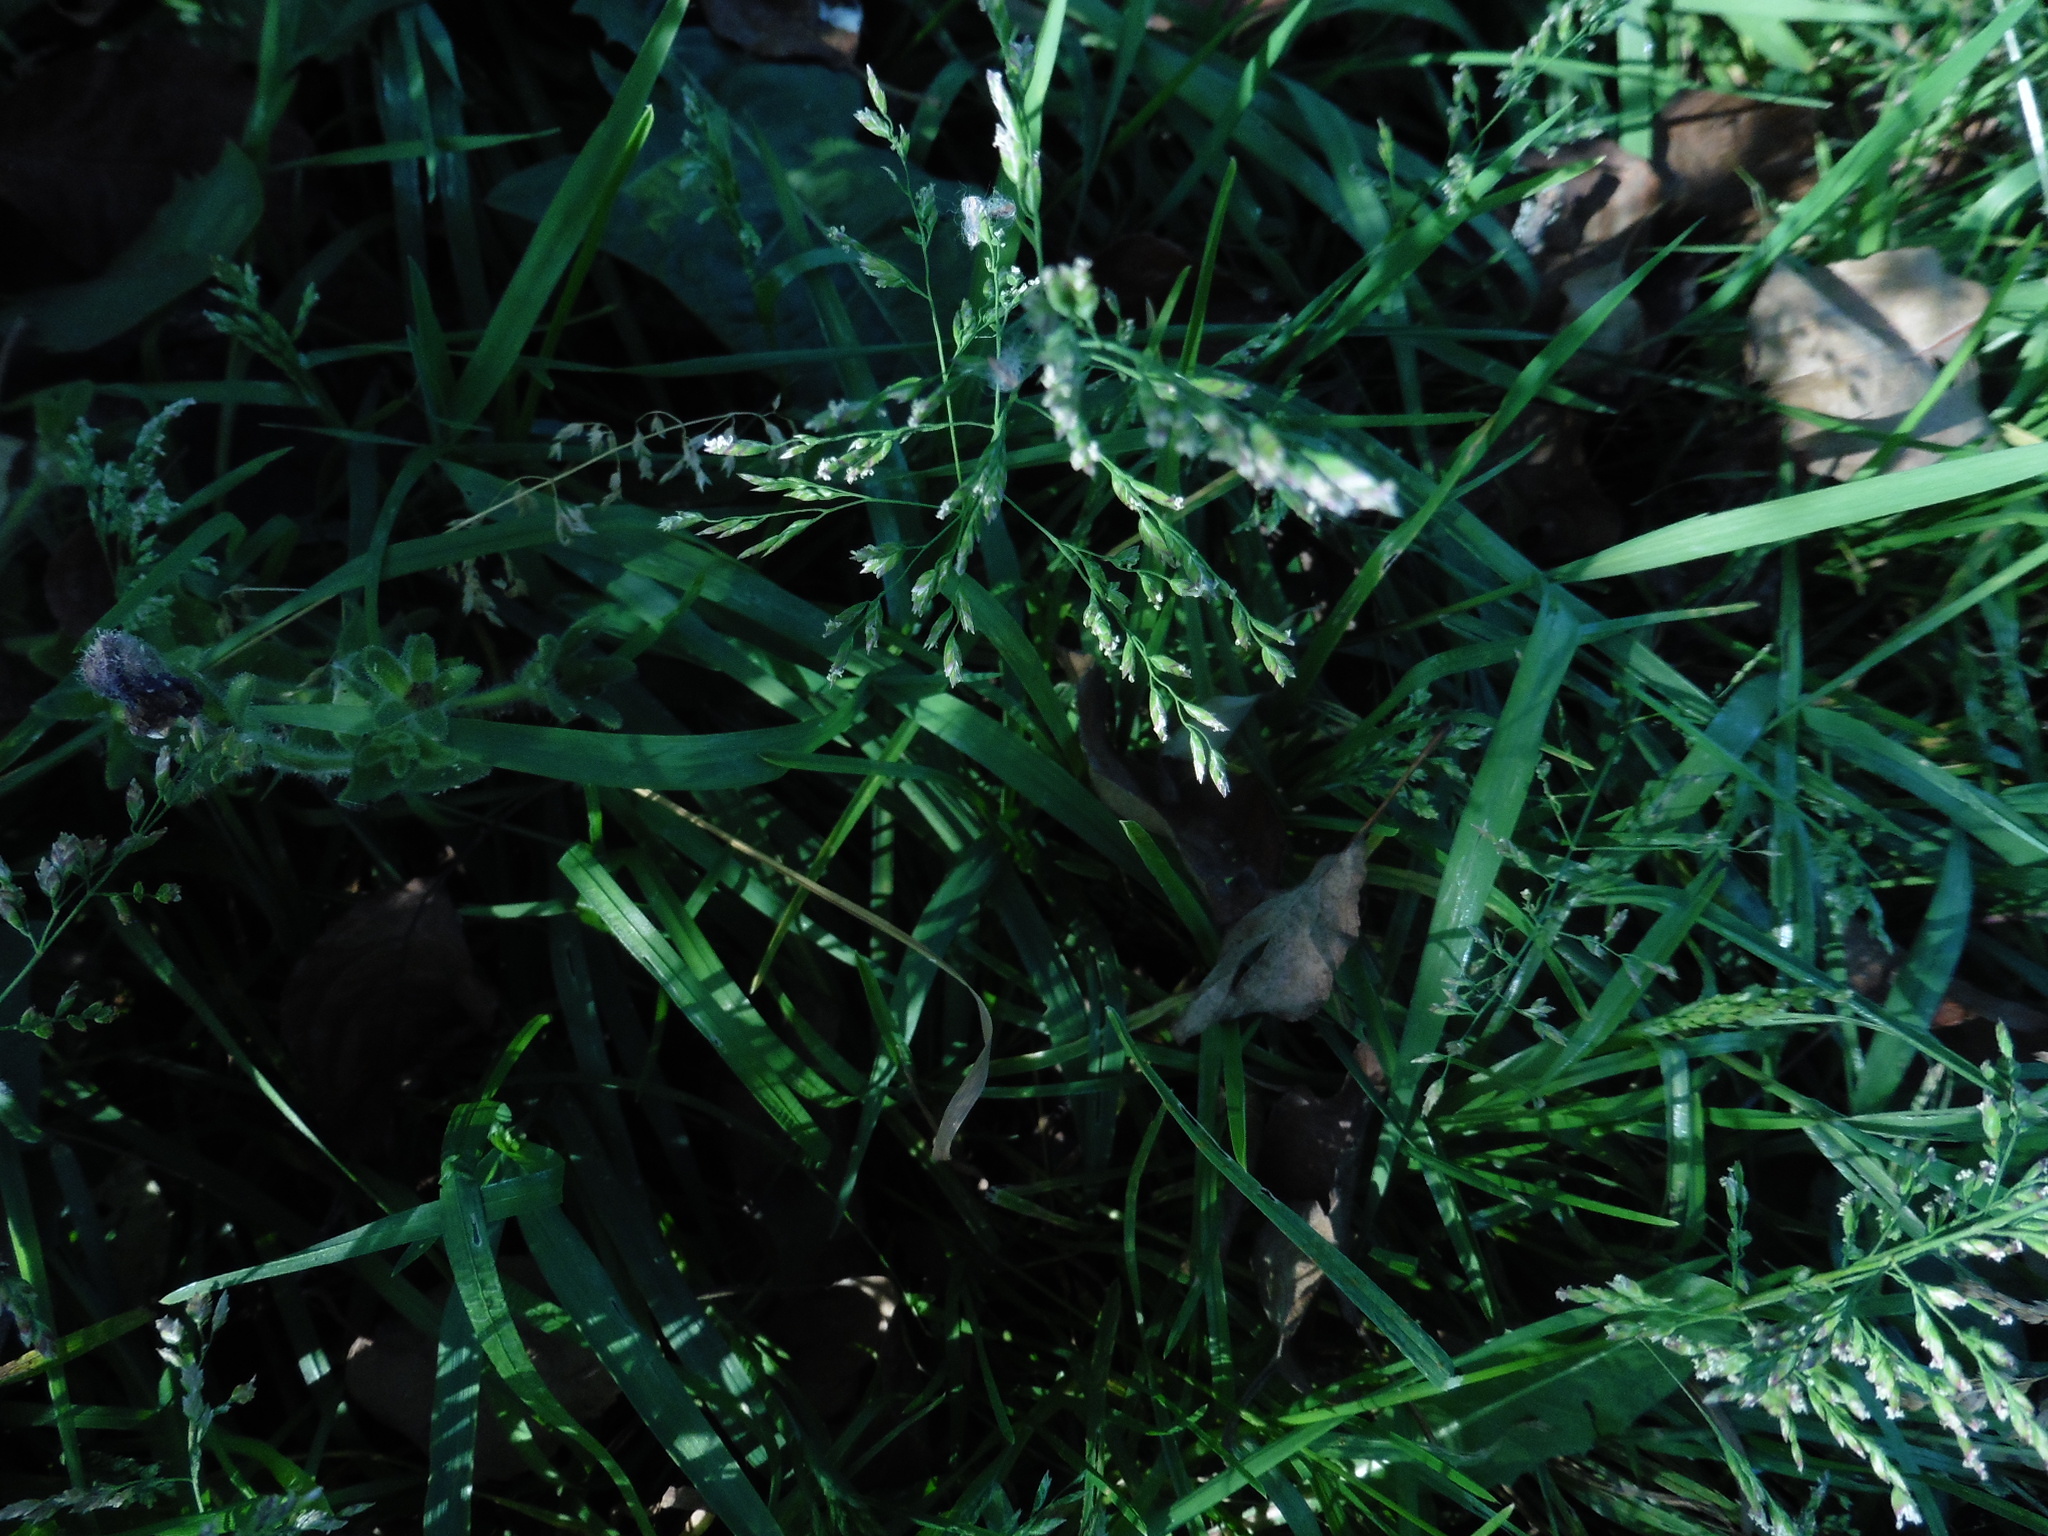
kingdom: Plantae
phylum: Tracheophyta
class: Liliopsida
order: Poales
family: Poaceae
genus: Poa
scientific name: Poa annua
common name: Annual bluegrass
